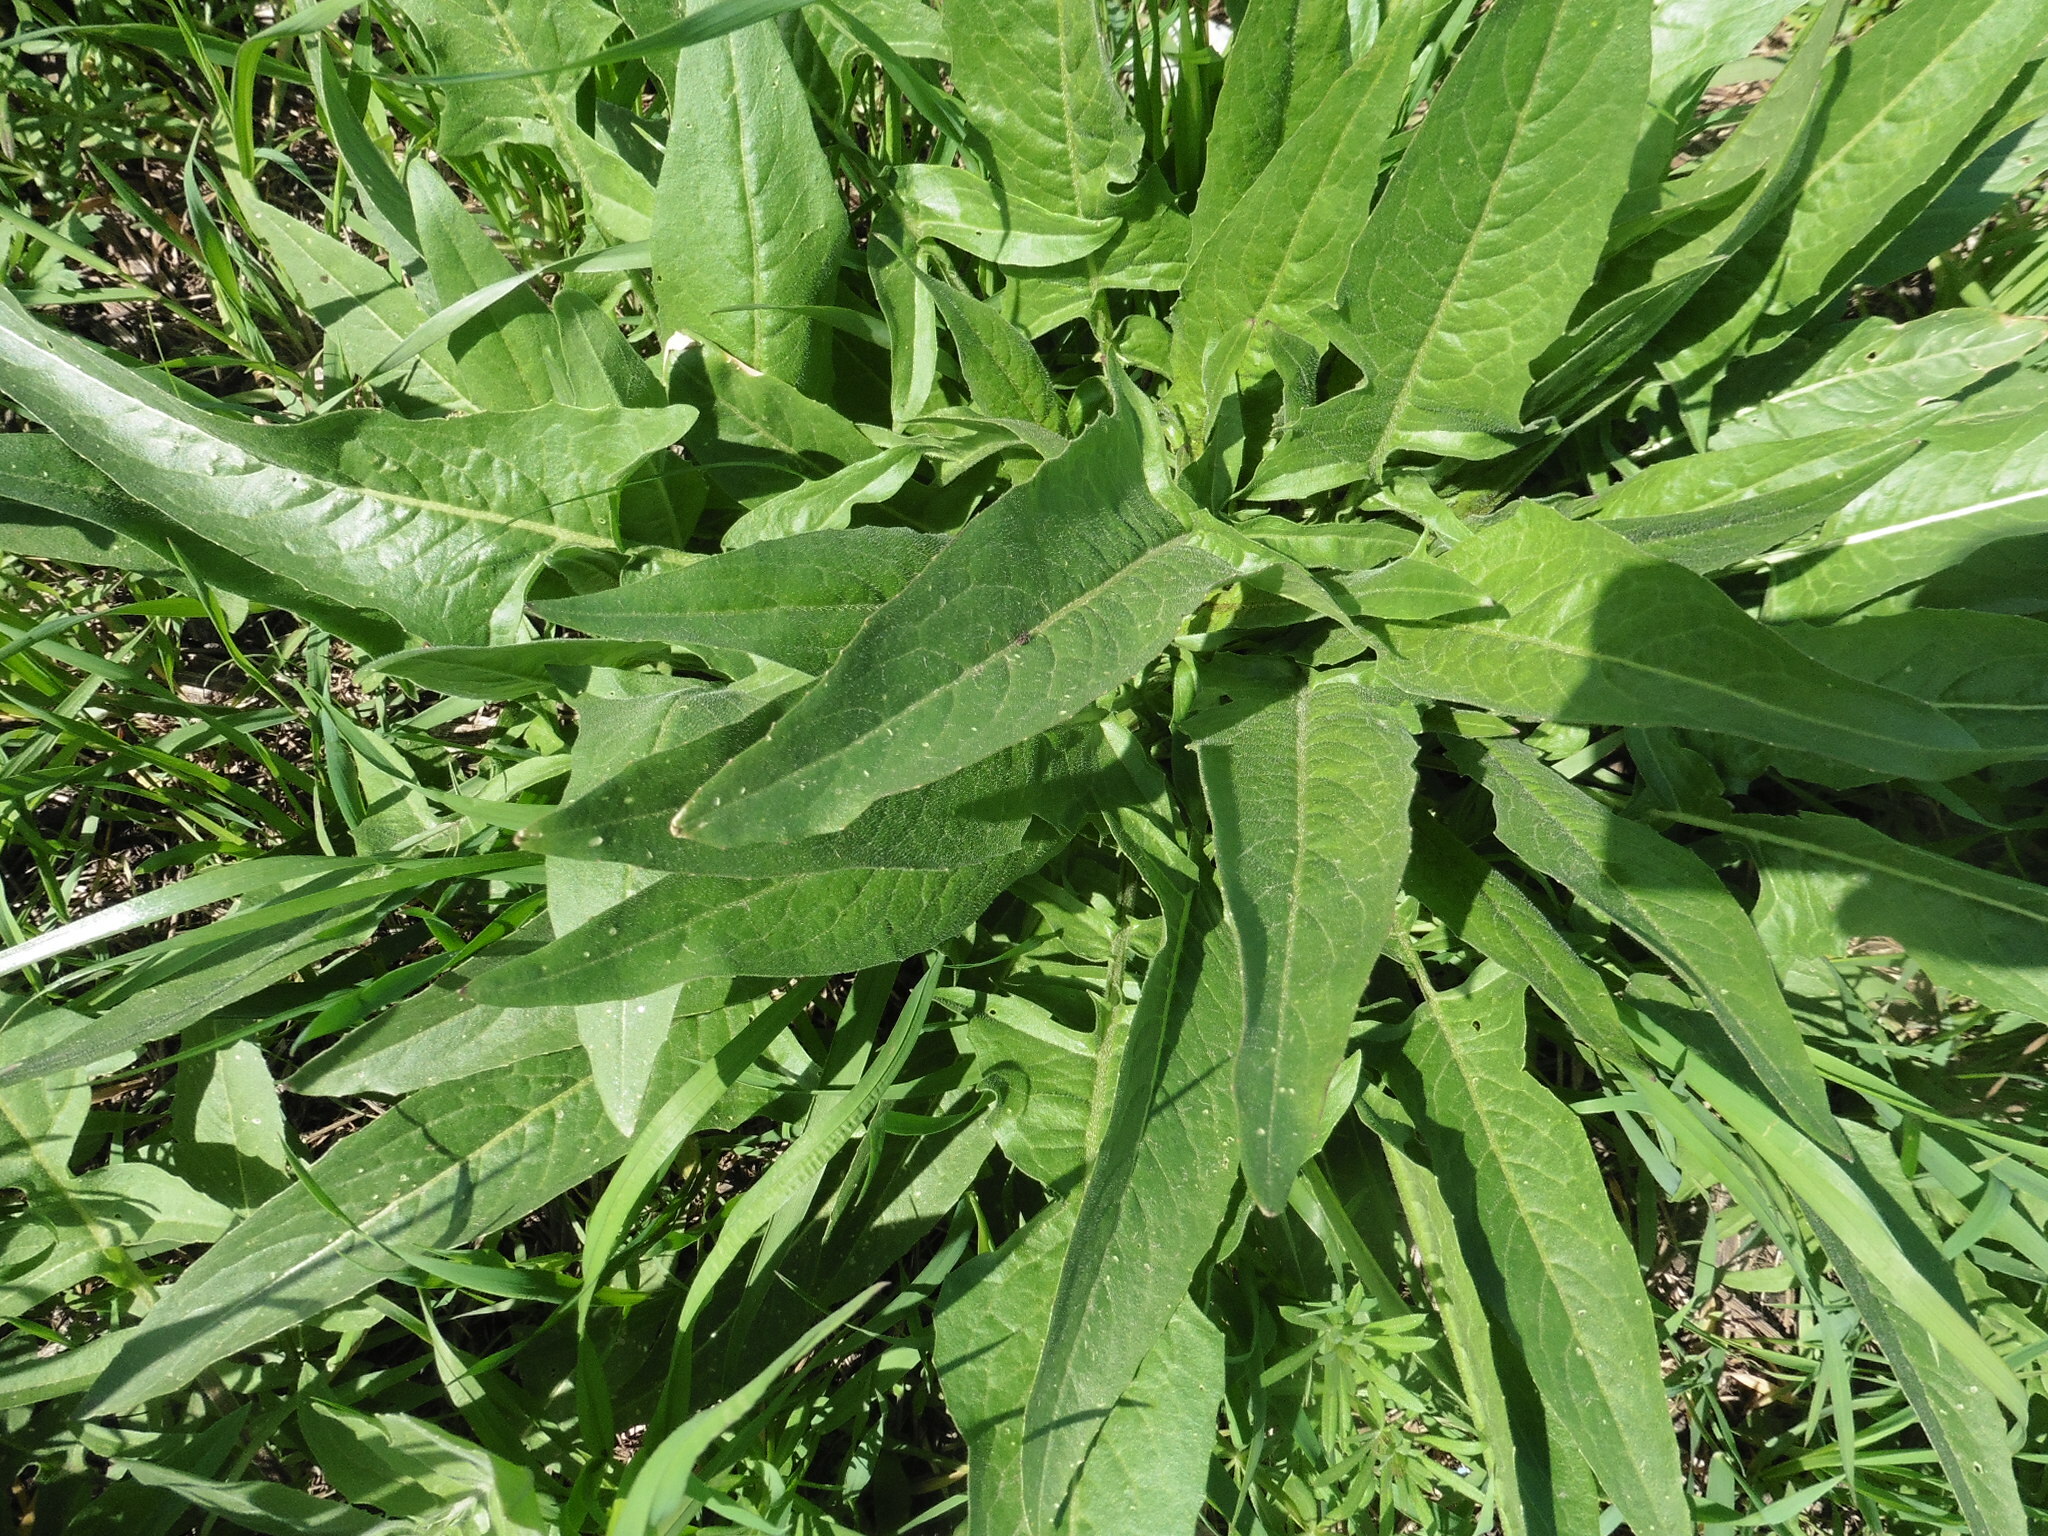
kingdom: Plantae
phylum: Tracheophyta
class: Magnoliopsida
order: Brassicales
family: Brassicaceae
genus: Bunias
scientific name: Bunias orientalis
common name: Warty-cabbage
